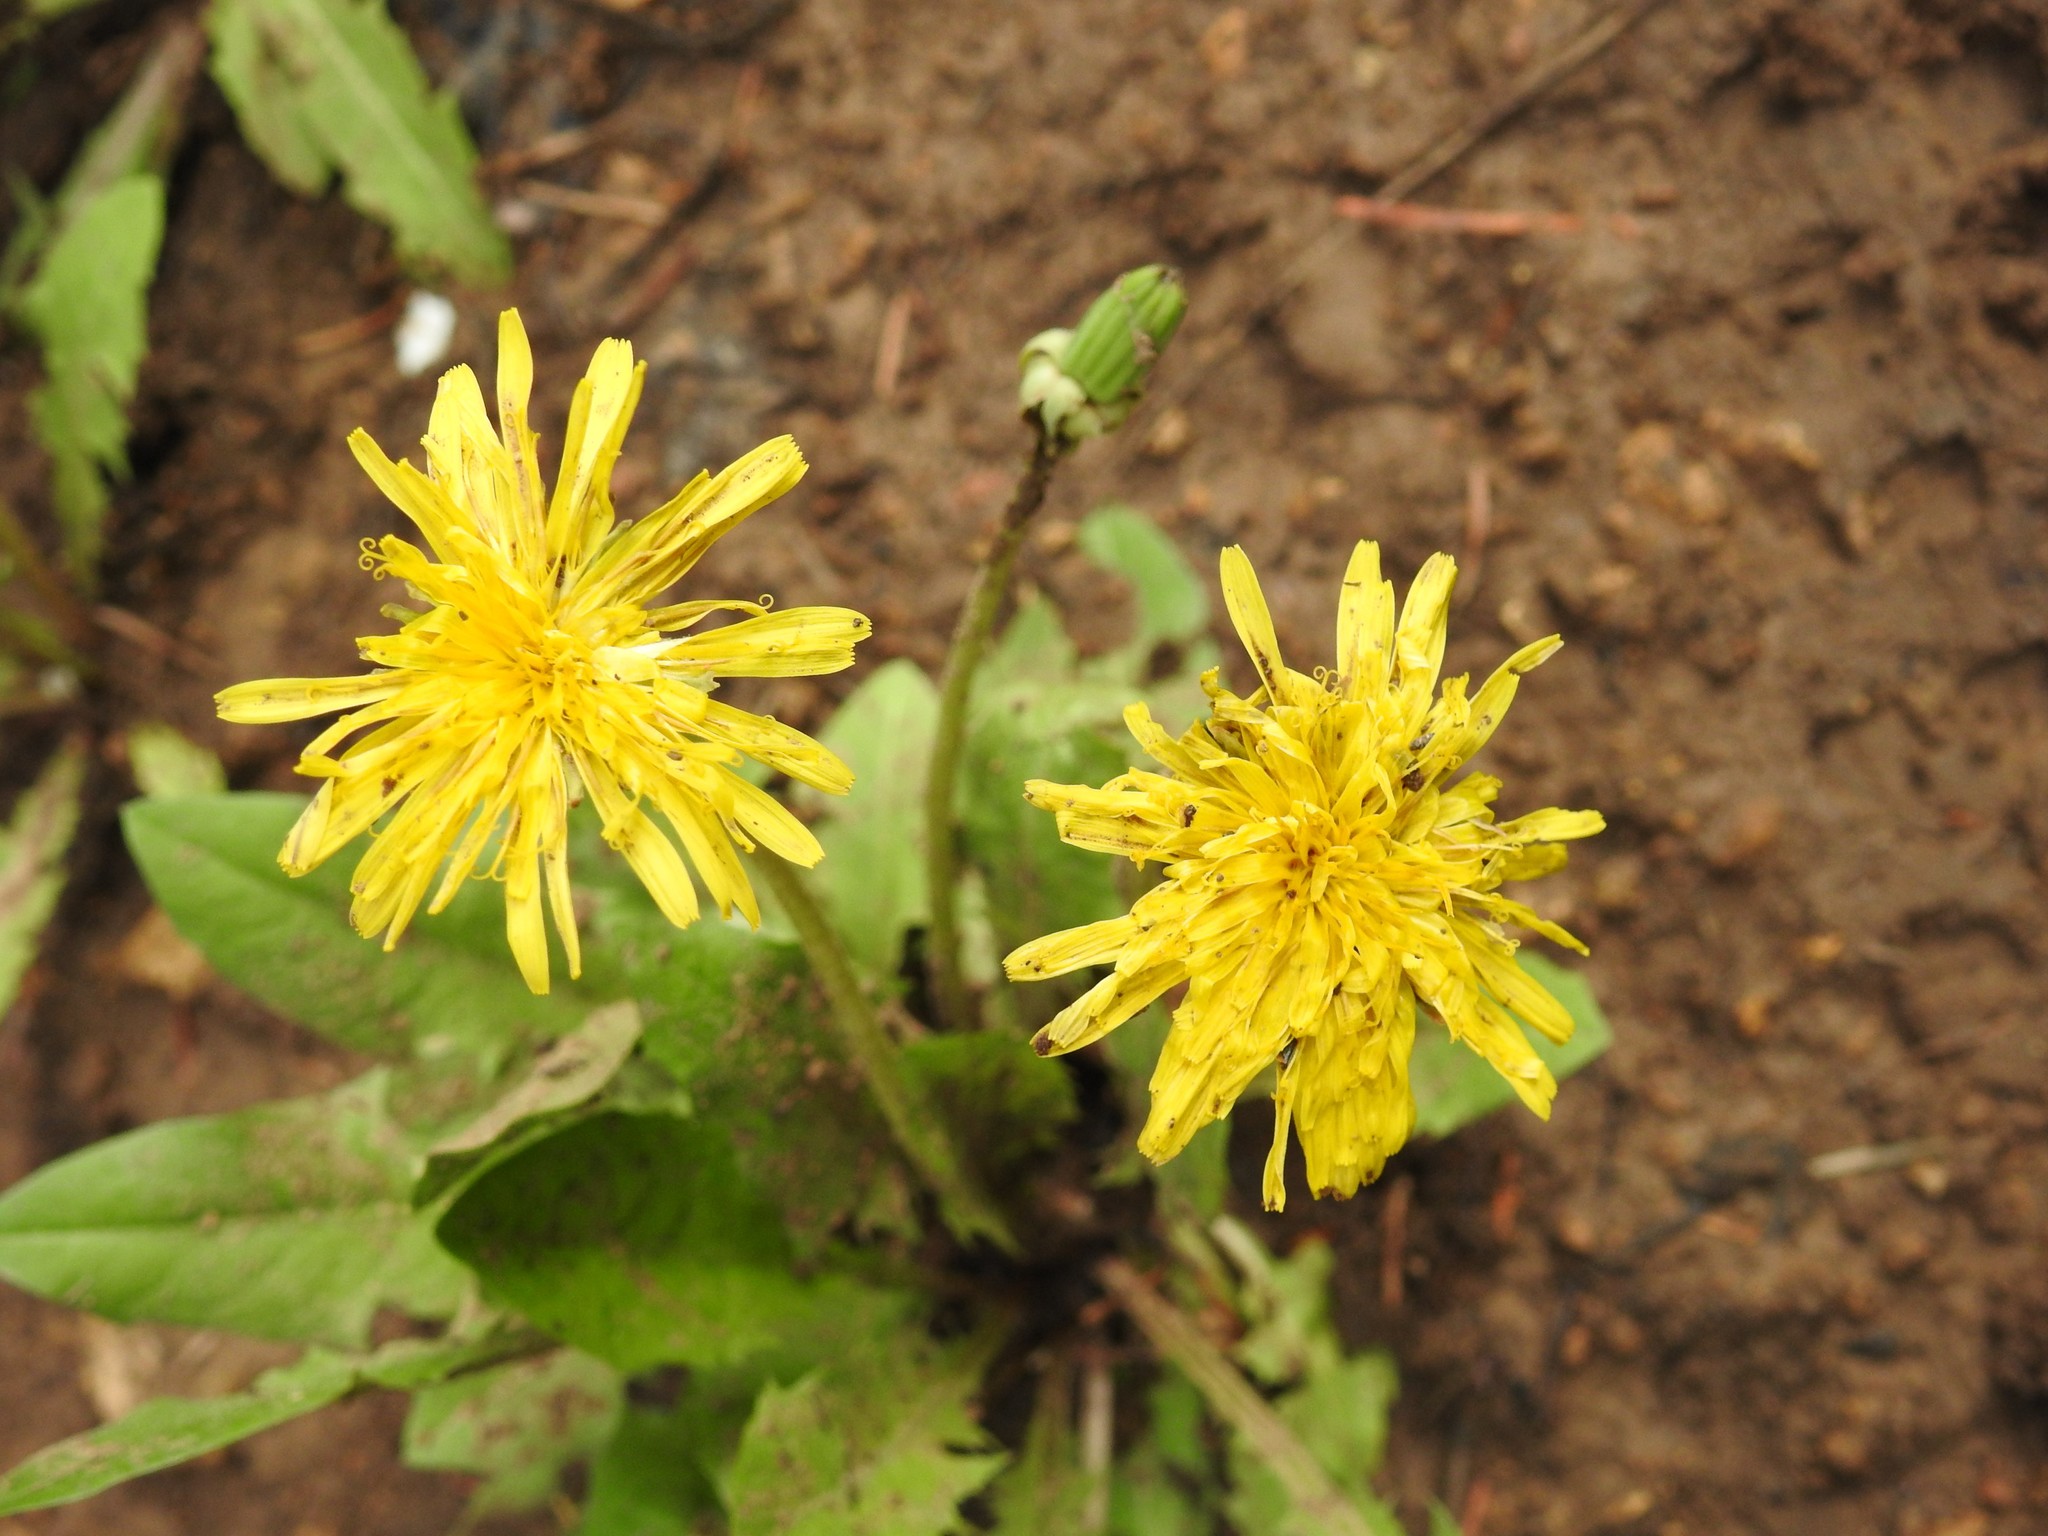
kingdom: Plantae
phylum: Tracheophyta
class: Magnoliopsida
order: Asterales
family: Asteraceae
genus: Taraxacum
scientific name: Taraxacum officinale
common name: Common dandelion
